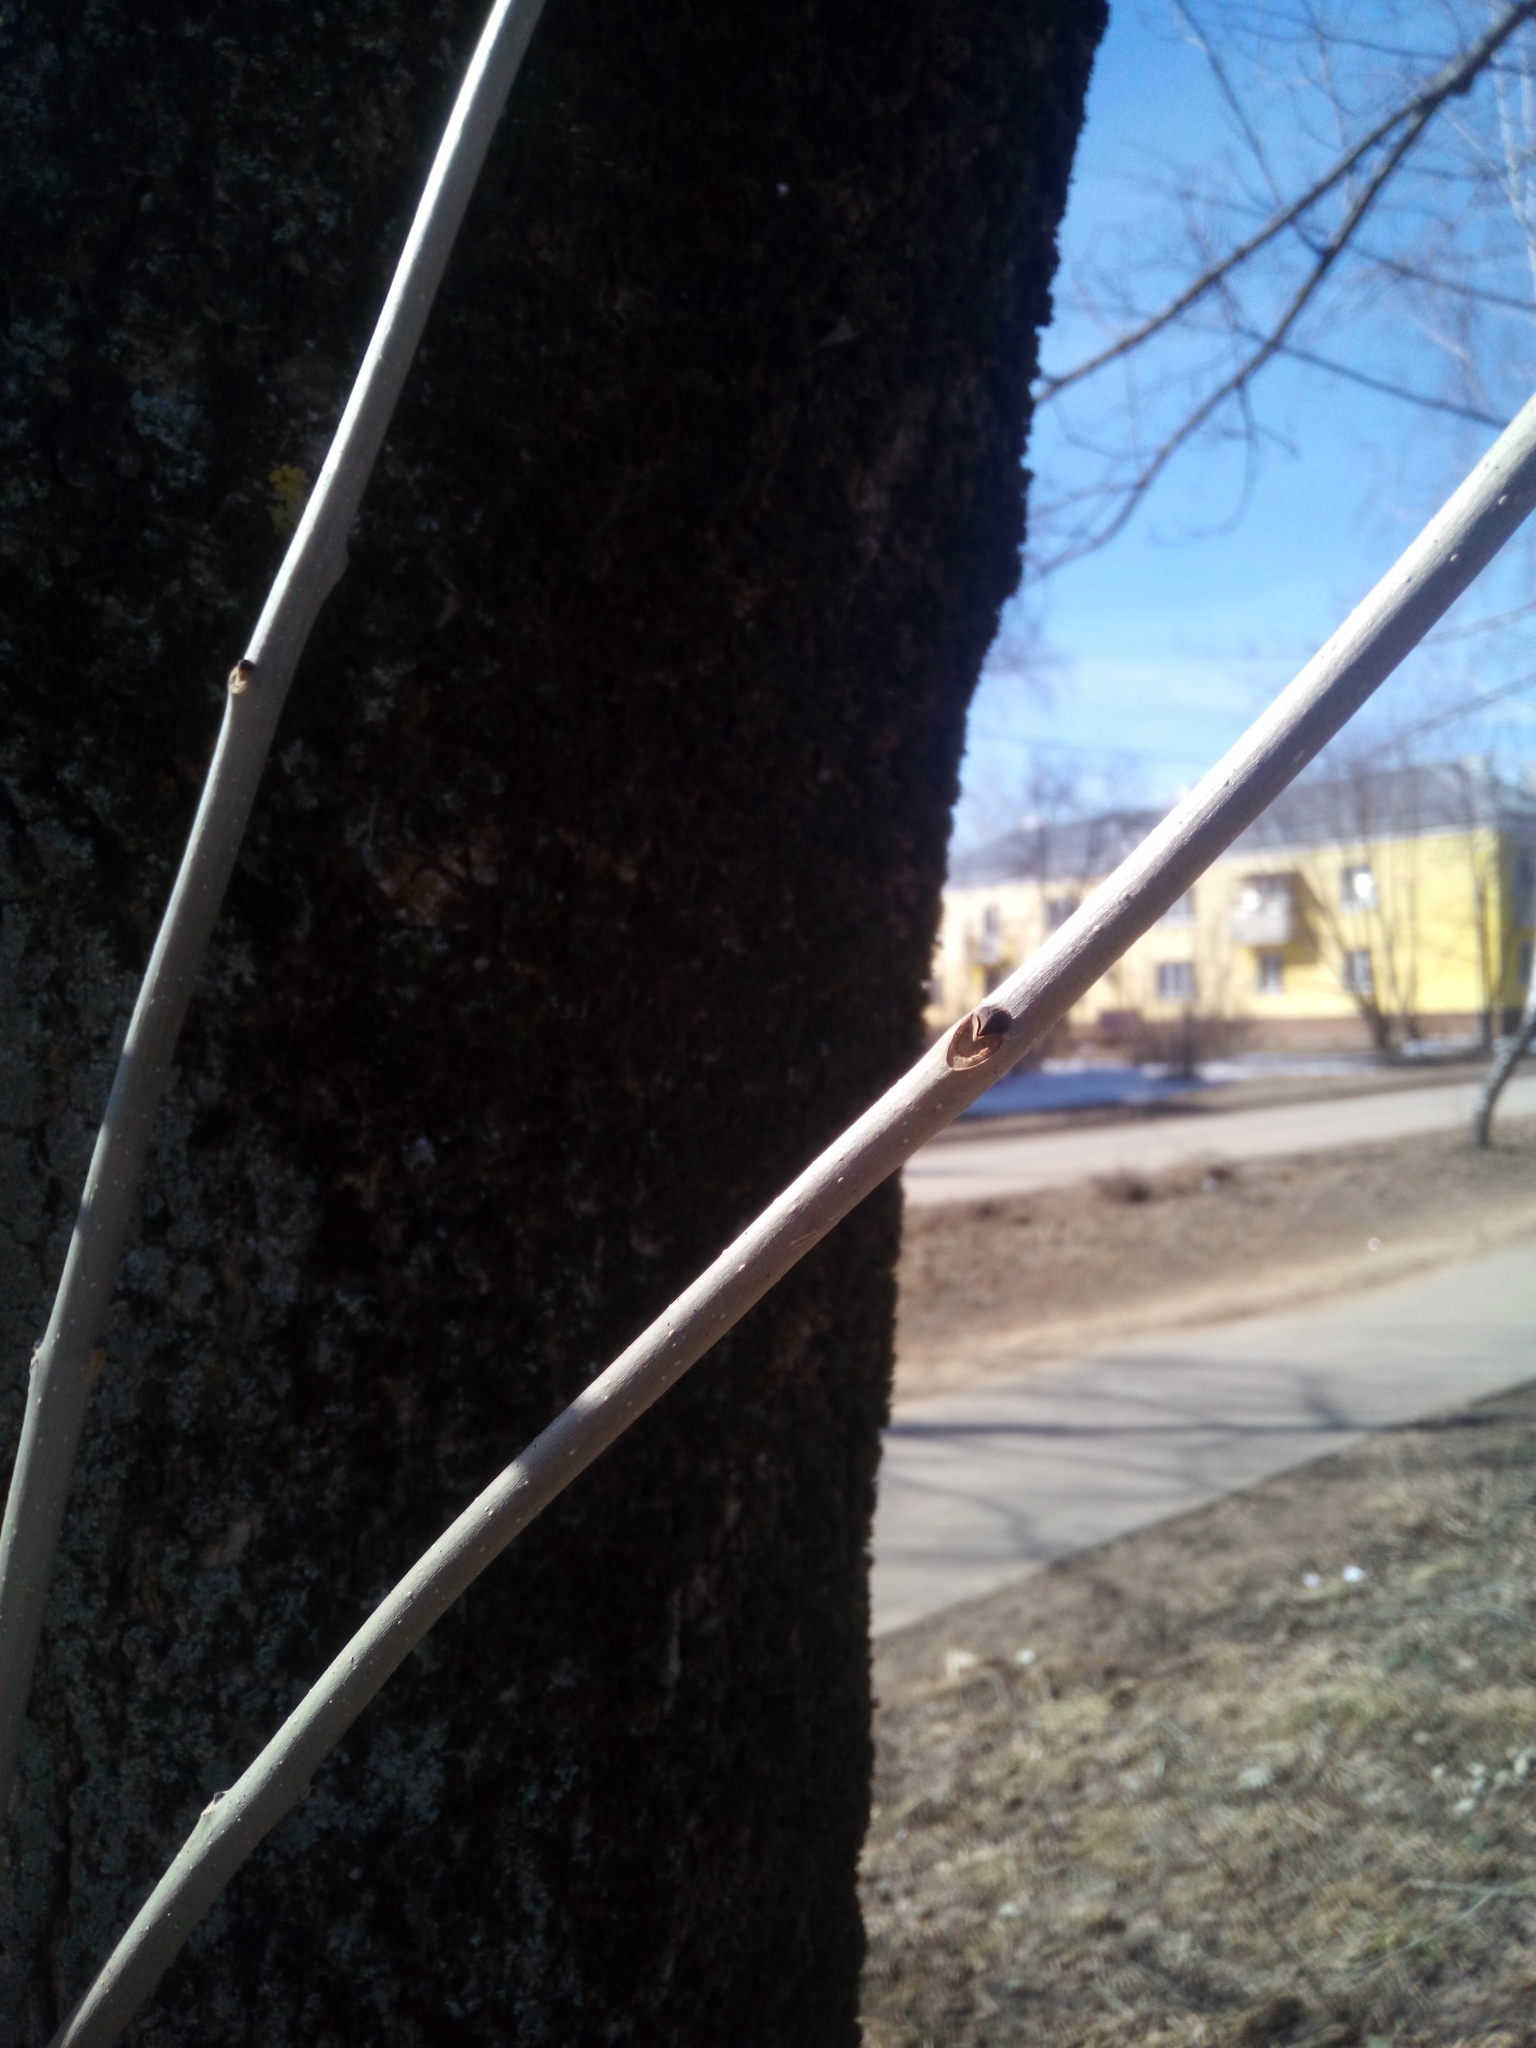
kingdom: Plantae
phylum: Tracheophyta
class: Magnoliopsida
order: Lamiales
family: Oleaceae
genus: Fraxinus
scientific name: Fraxinus pennsylvanica
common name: Green ash
